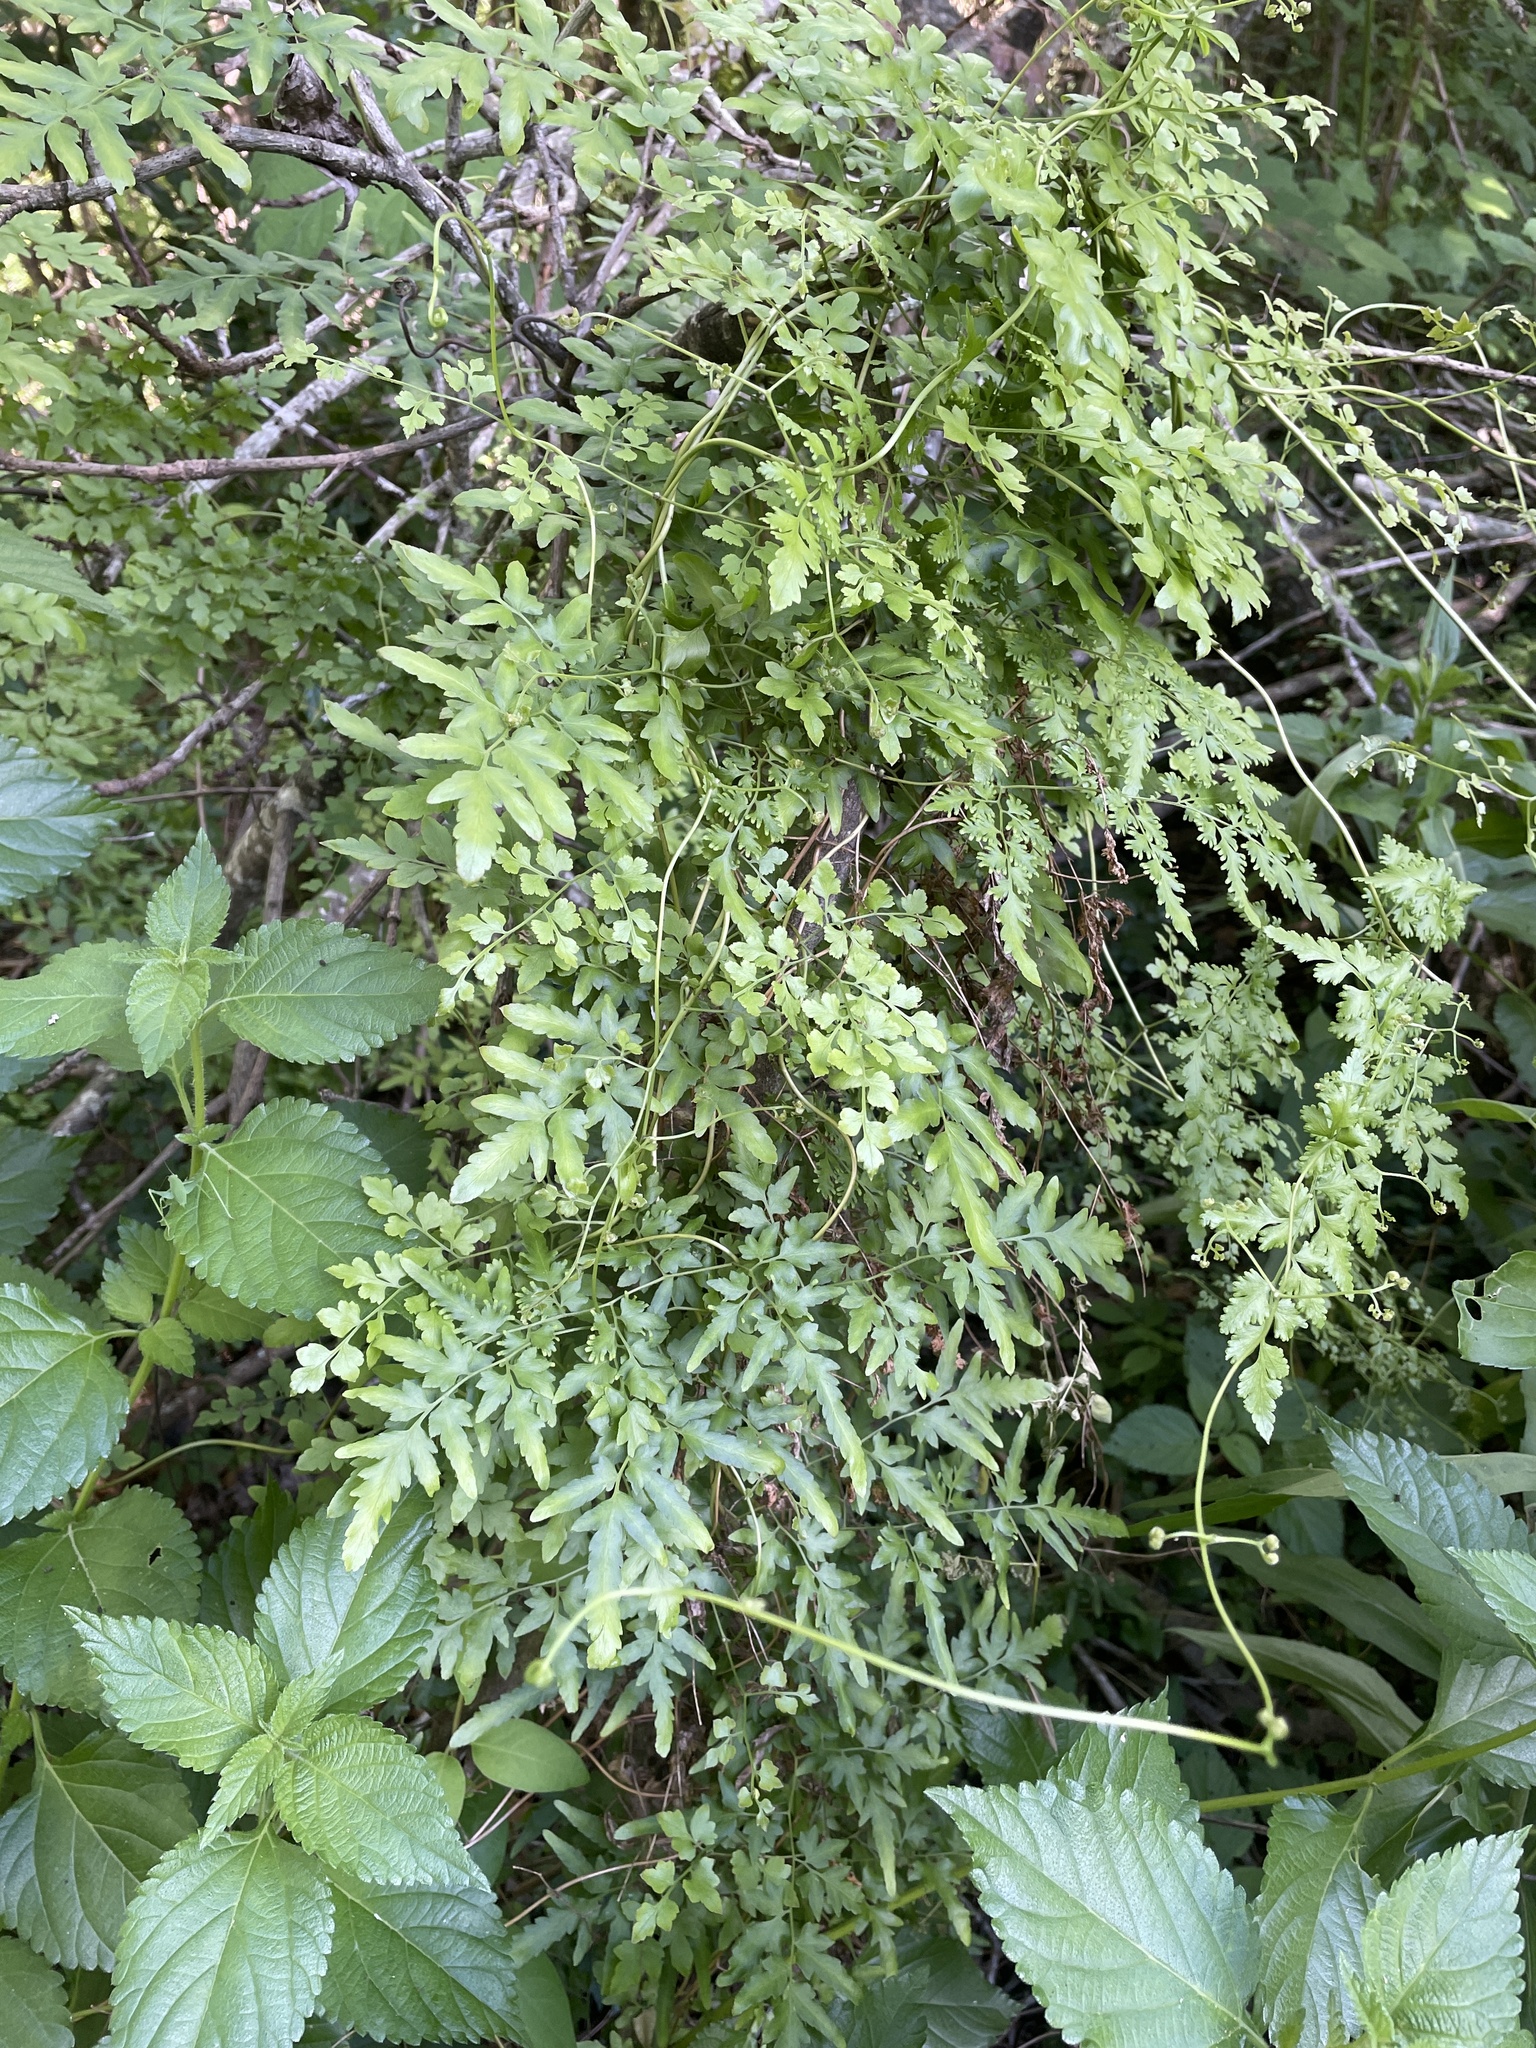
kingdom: Plantae
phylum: Tracheophyta
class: Polypodiopsida
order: Schizaeales
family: Lygodiaceae
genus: Lygodium
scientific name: Lygodium japonicum
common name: Japanese climbing fern
